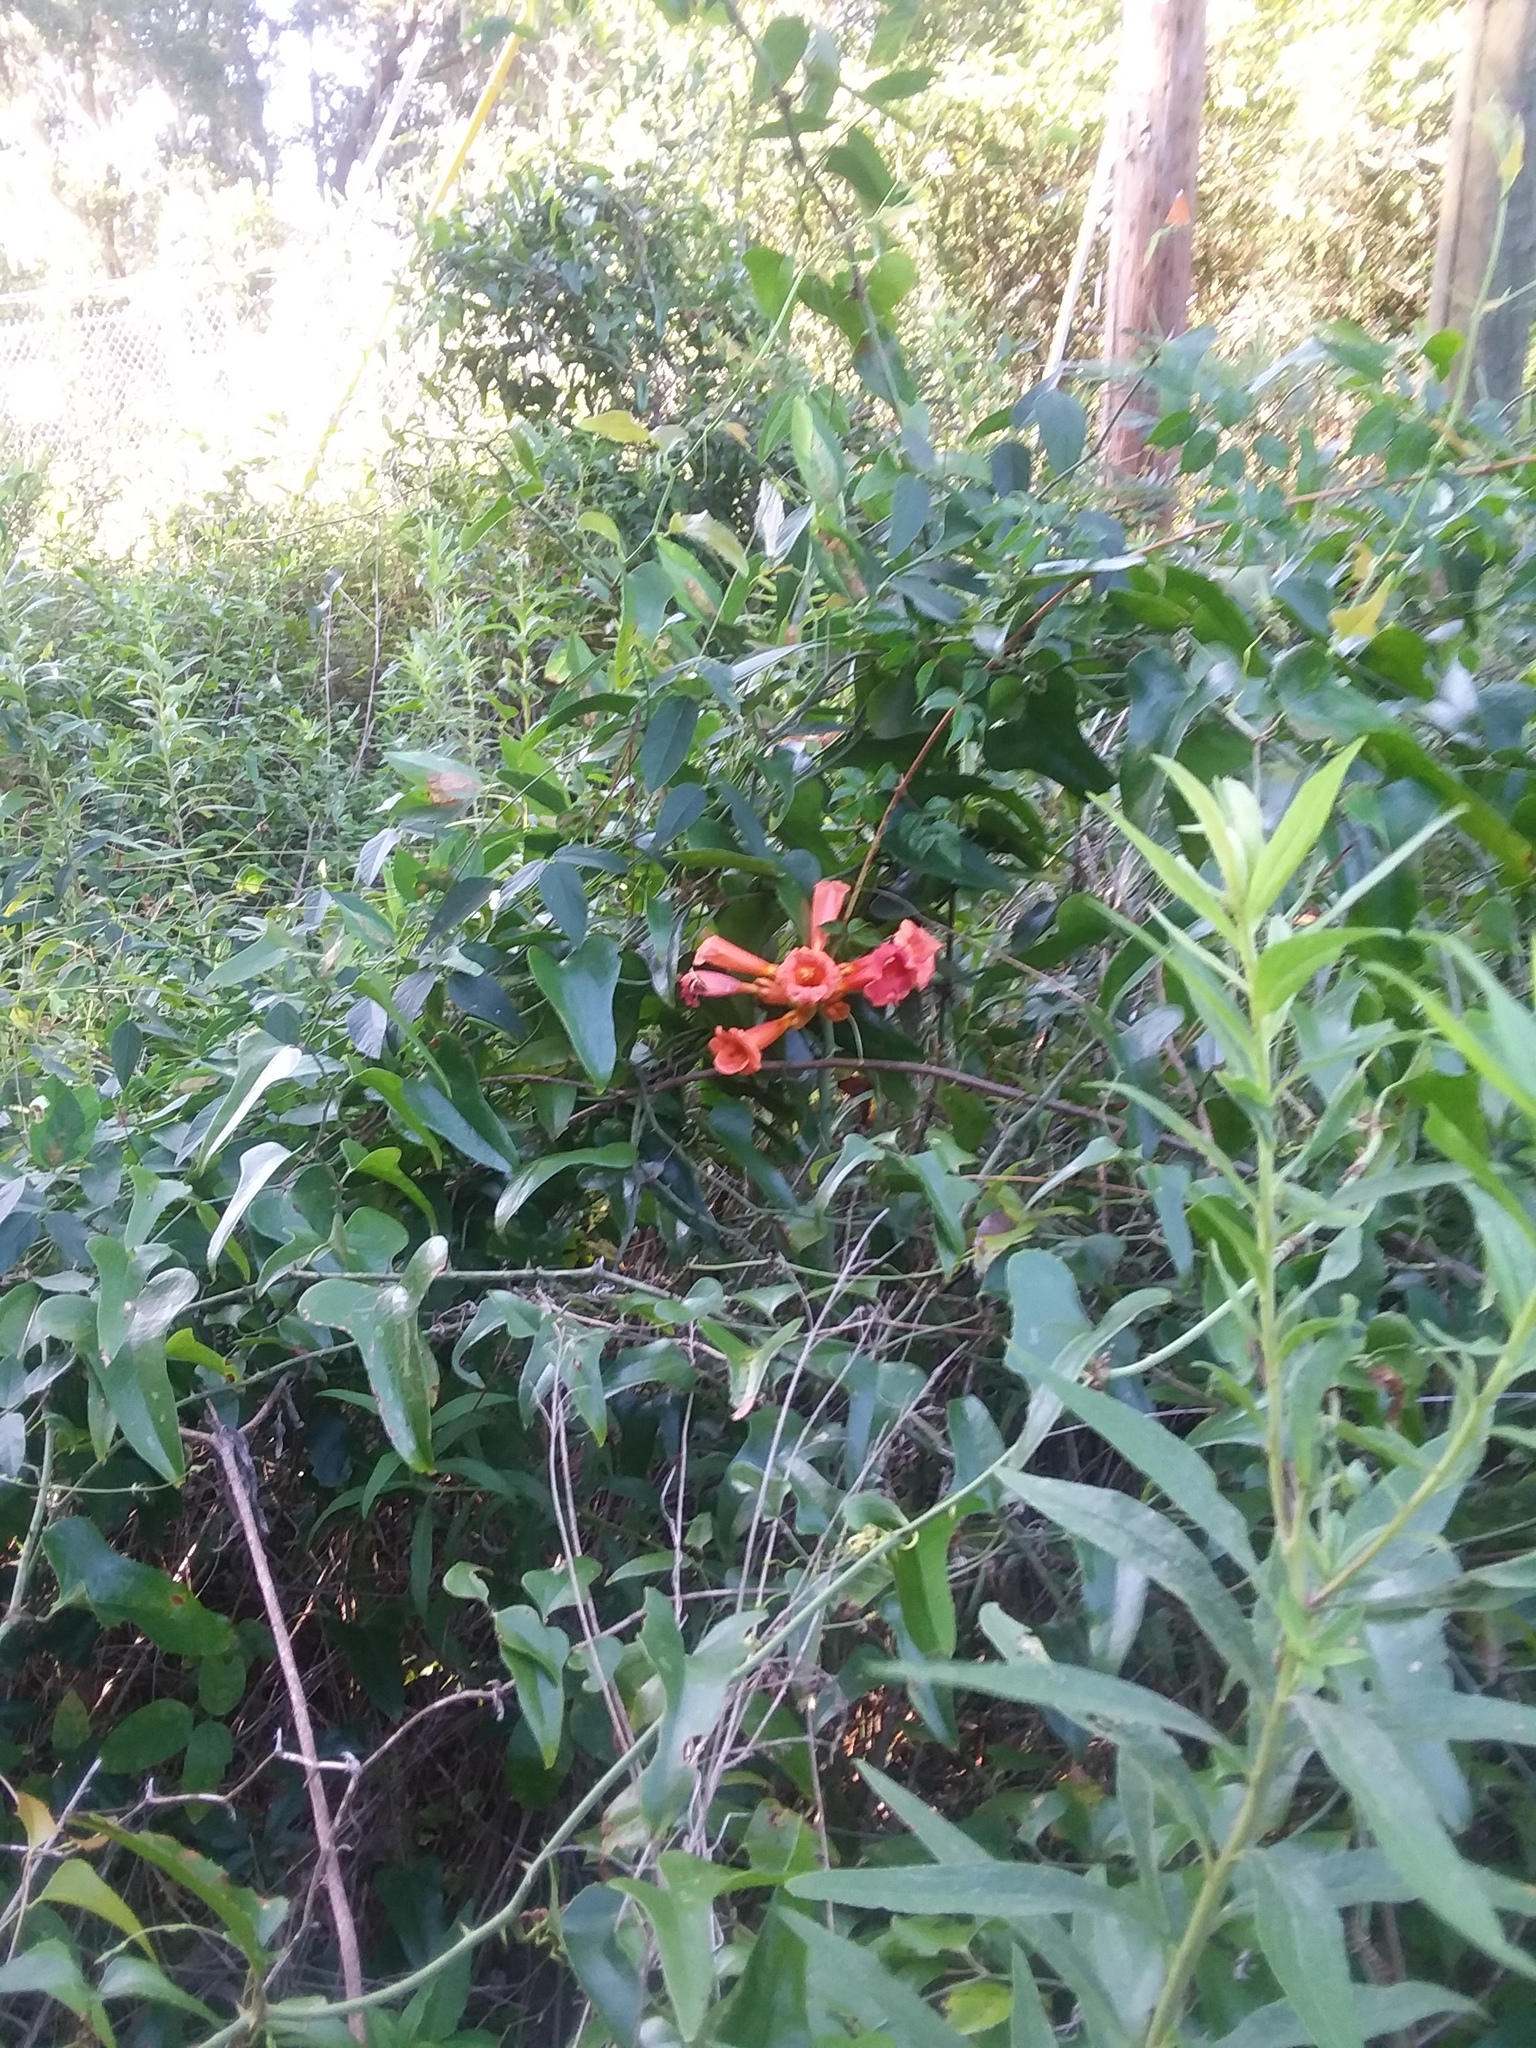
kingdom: Plantae
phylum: Tracheophyta
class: Magnoliopsida
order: Lamiales
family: Bignoniaceae
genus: Campsis
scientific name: Campsis radicans
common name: Trumpet-creeper
